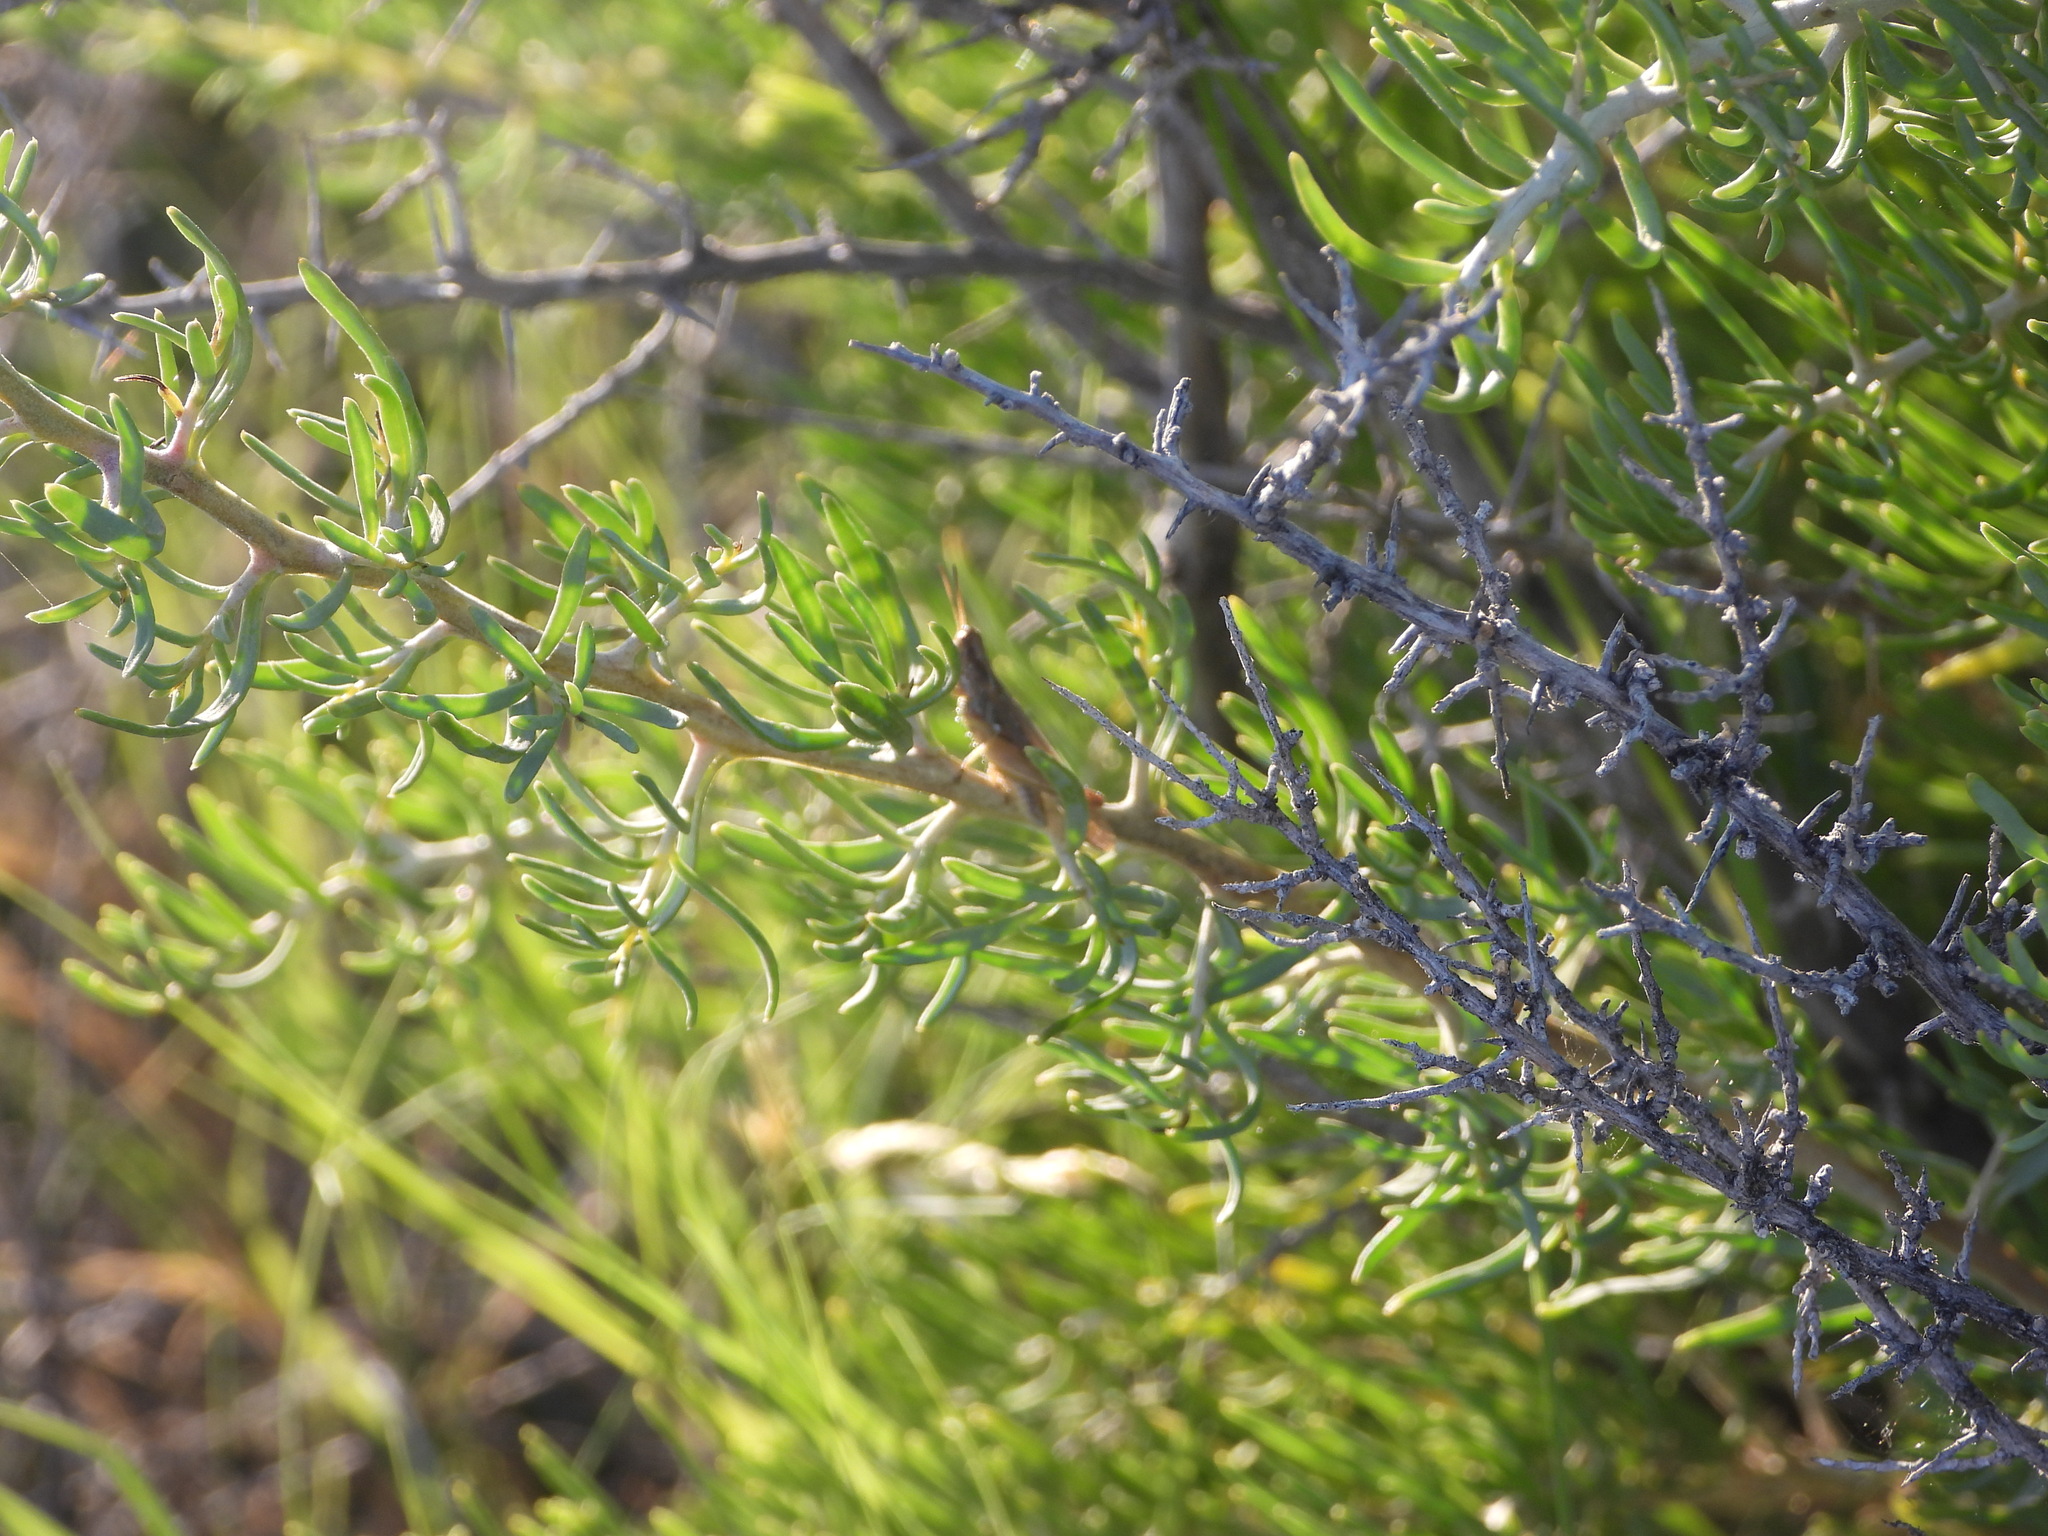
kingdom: Animalia
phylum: Arthropoda
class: Insecta
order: Orthoptera
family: Acrididae
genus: Orphulella
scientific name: Orphulella pelidna
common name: Spotted-wing grasshopper
